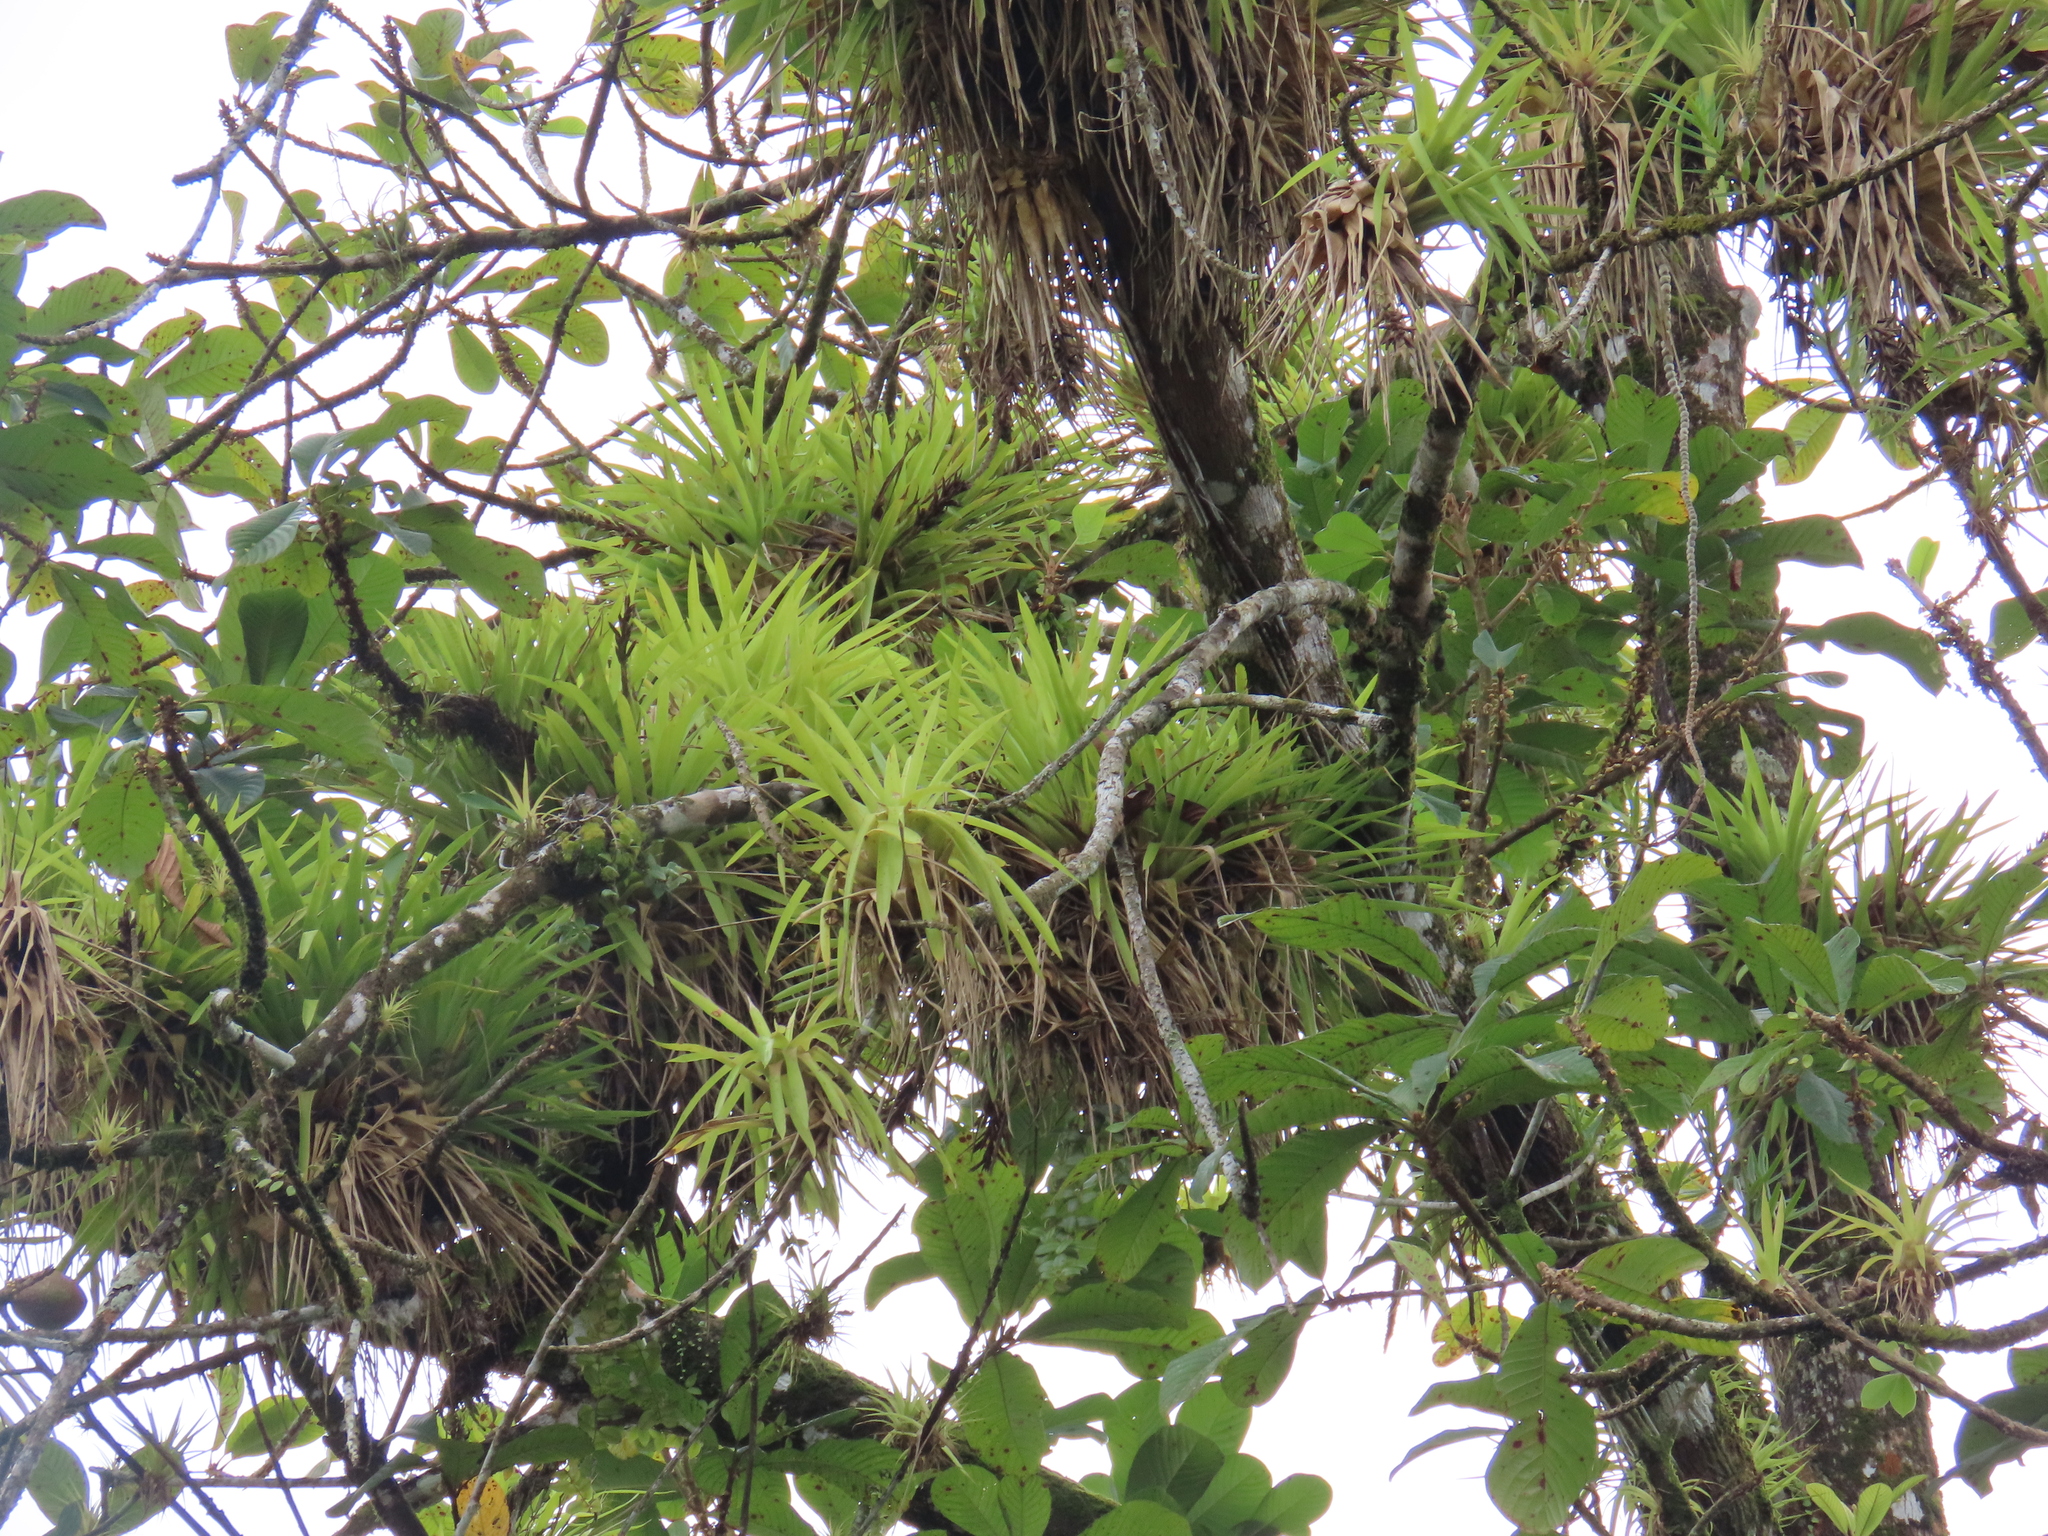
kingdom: Plantae
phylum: Tracheophyta
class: Liliopsida
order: Poales
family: Bromeliaceae
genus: Guzmania
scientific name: Guzmania monostachia
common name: West indian tufted airplant
